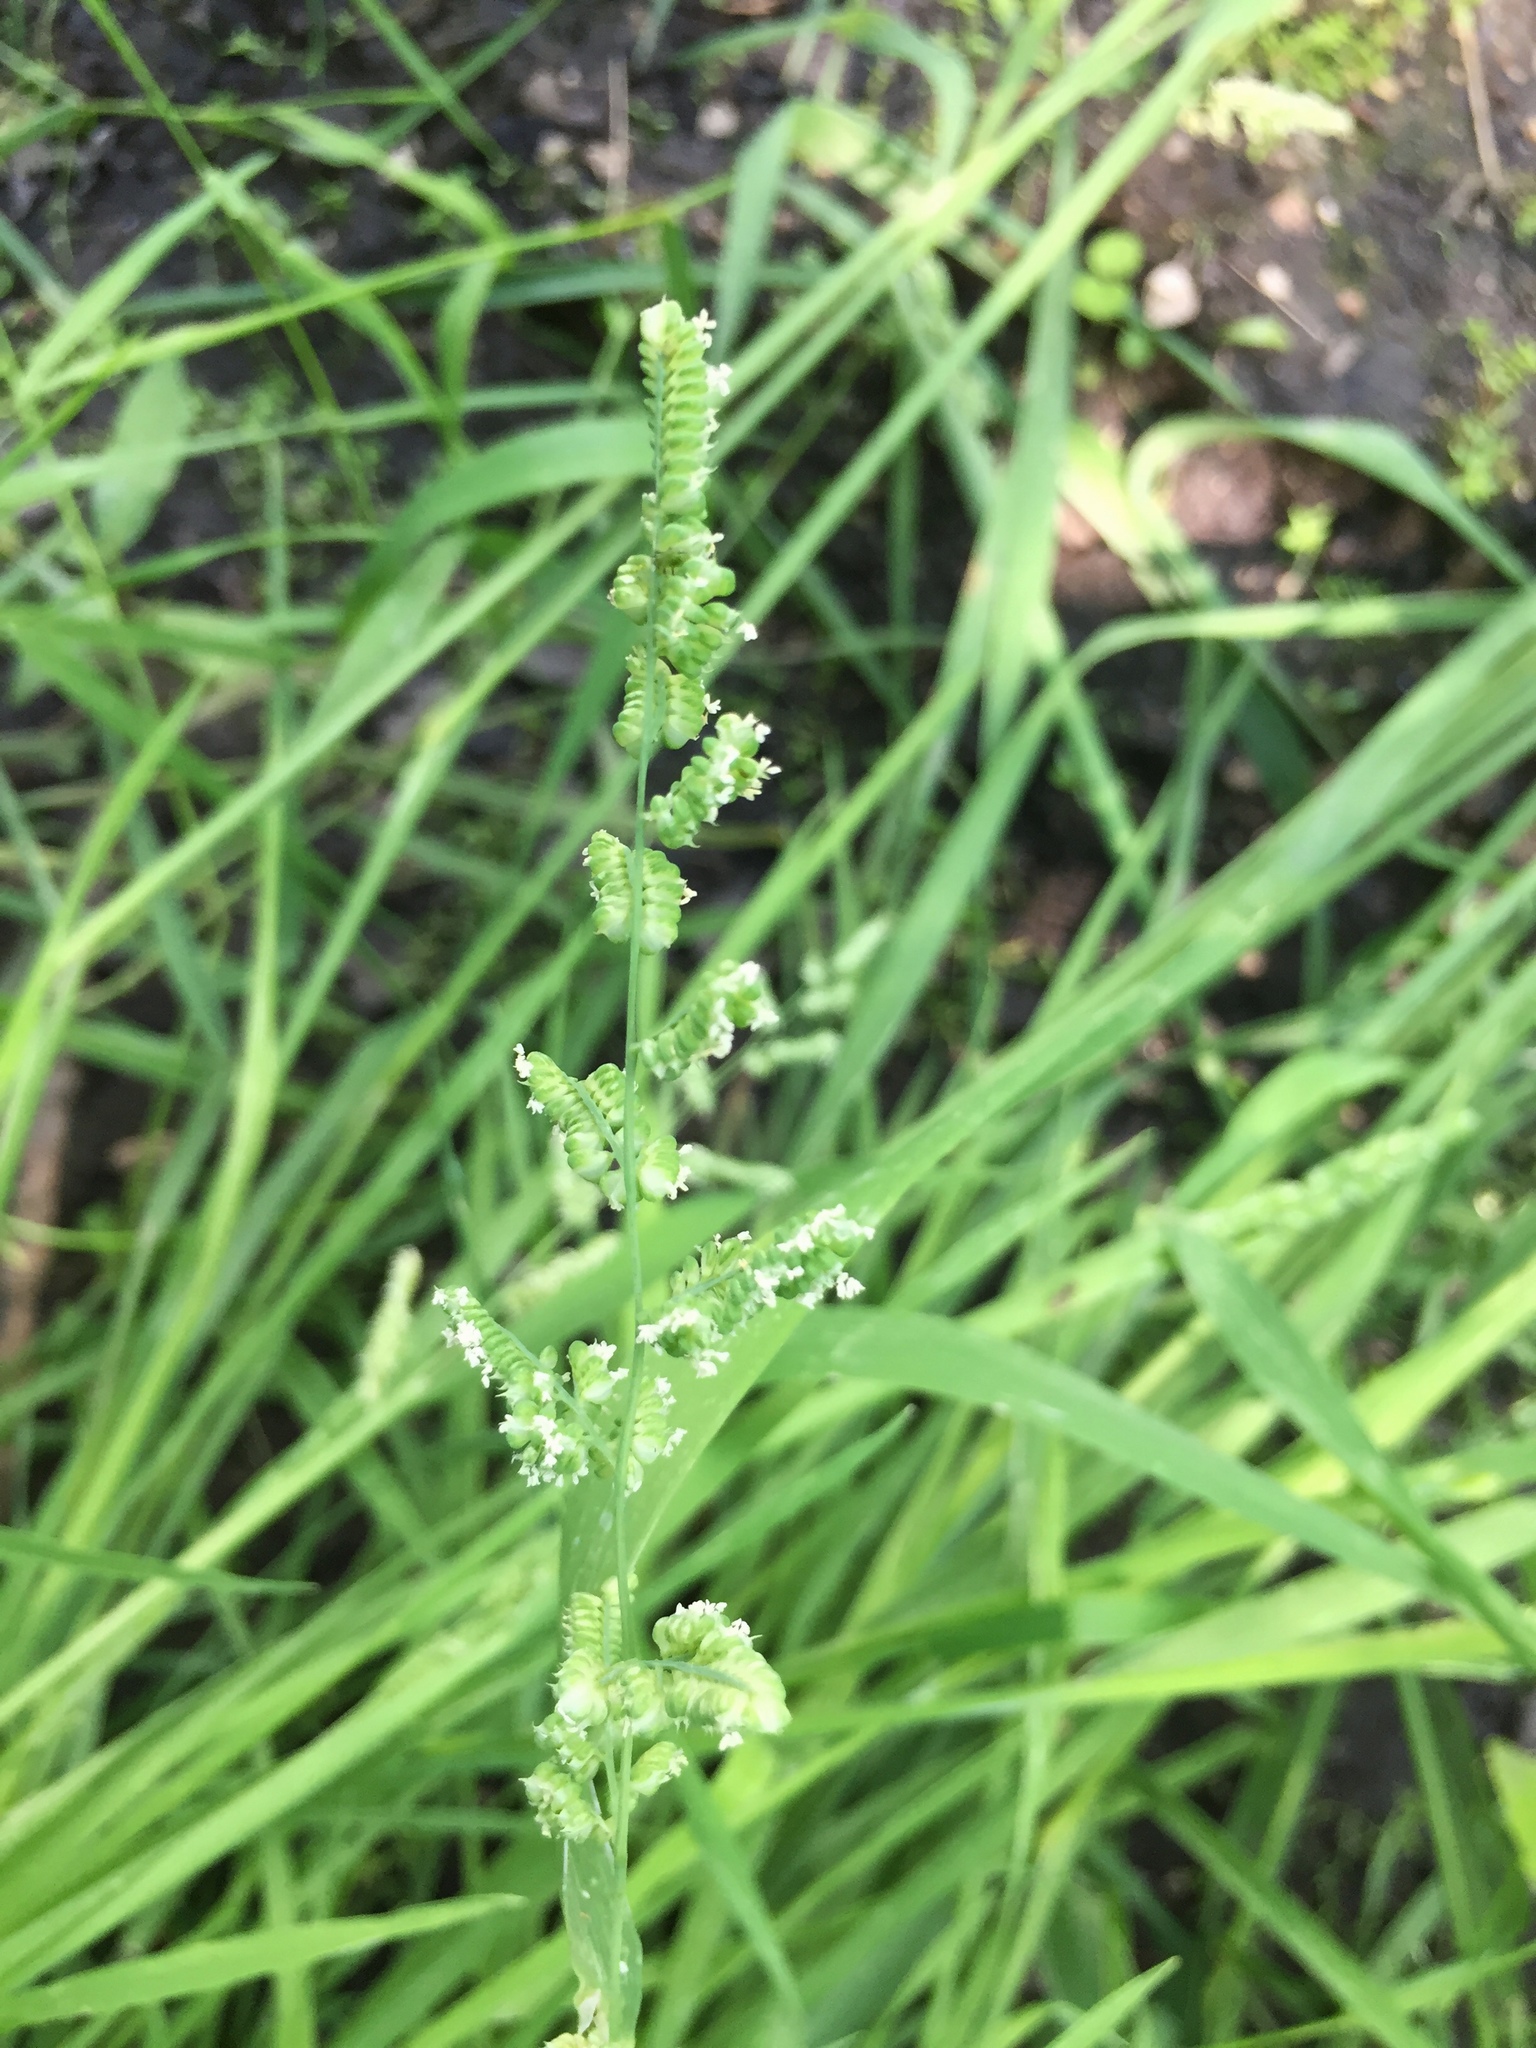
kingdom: Plantae
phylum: Tracheophyta
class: Liliopsida
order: Poales
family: Poaceae
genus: Beckmannia
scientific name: Beckmannia syzigachne
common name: American slough-grass
